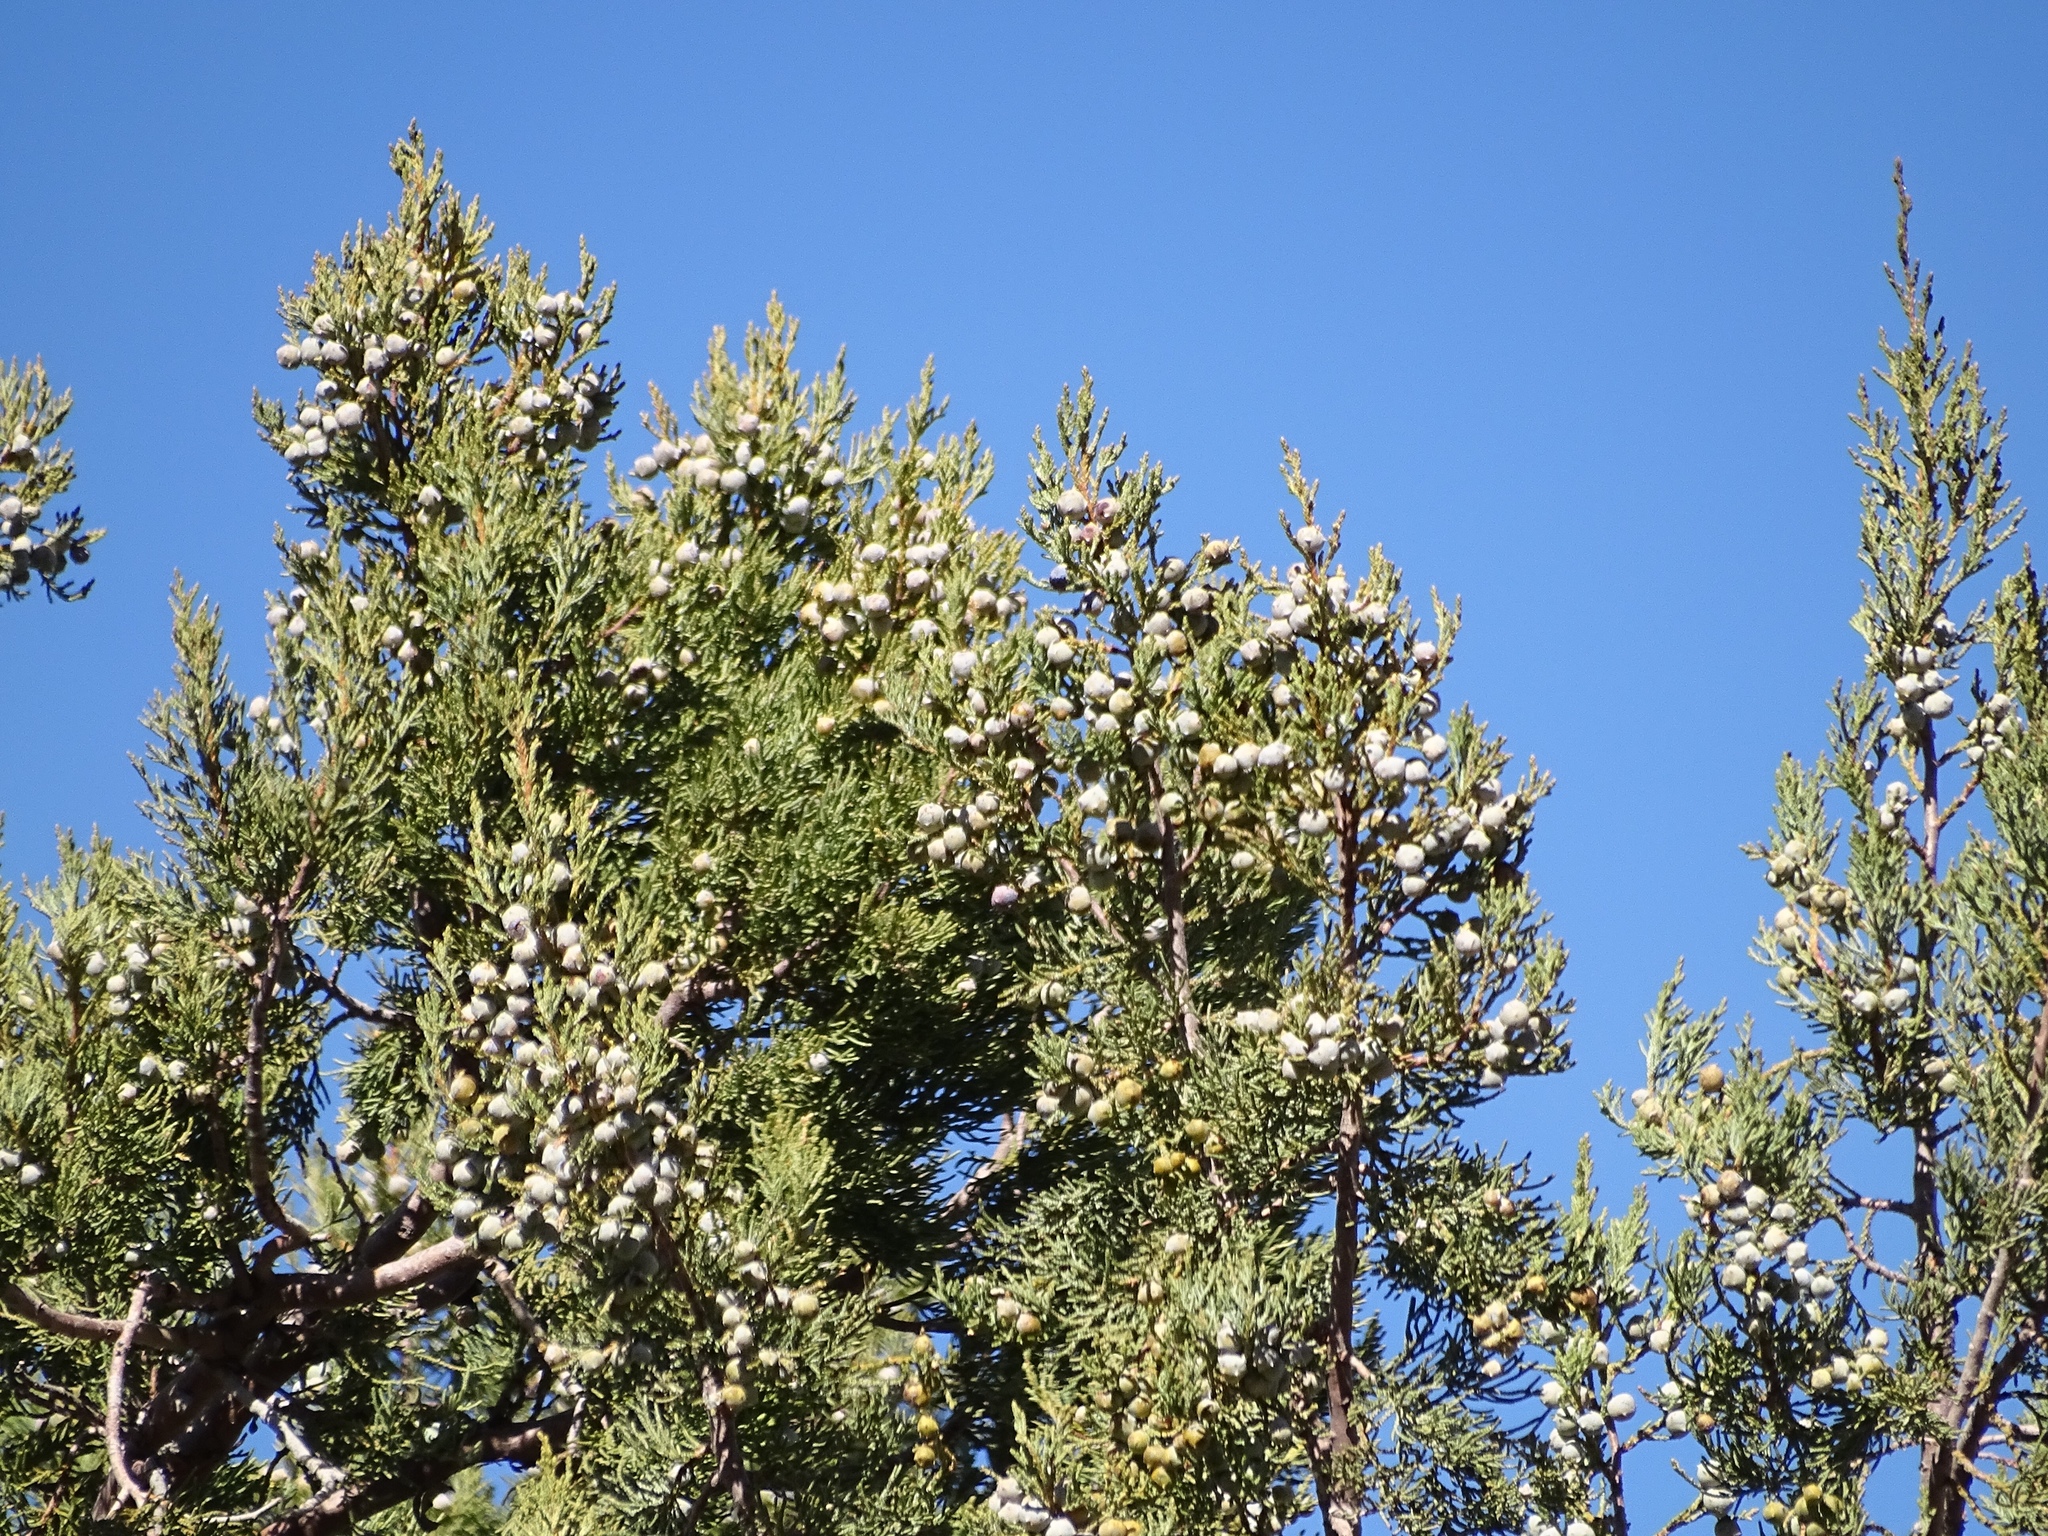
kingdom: Plantae
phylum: Tracheophyta
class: Pinopsida
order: Pinales
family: Cupressaceae
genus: Juniperus
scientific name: Juniperus deppeana
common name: Alligator juniper
